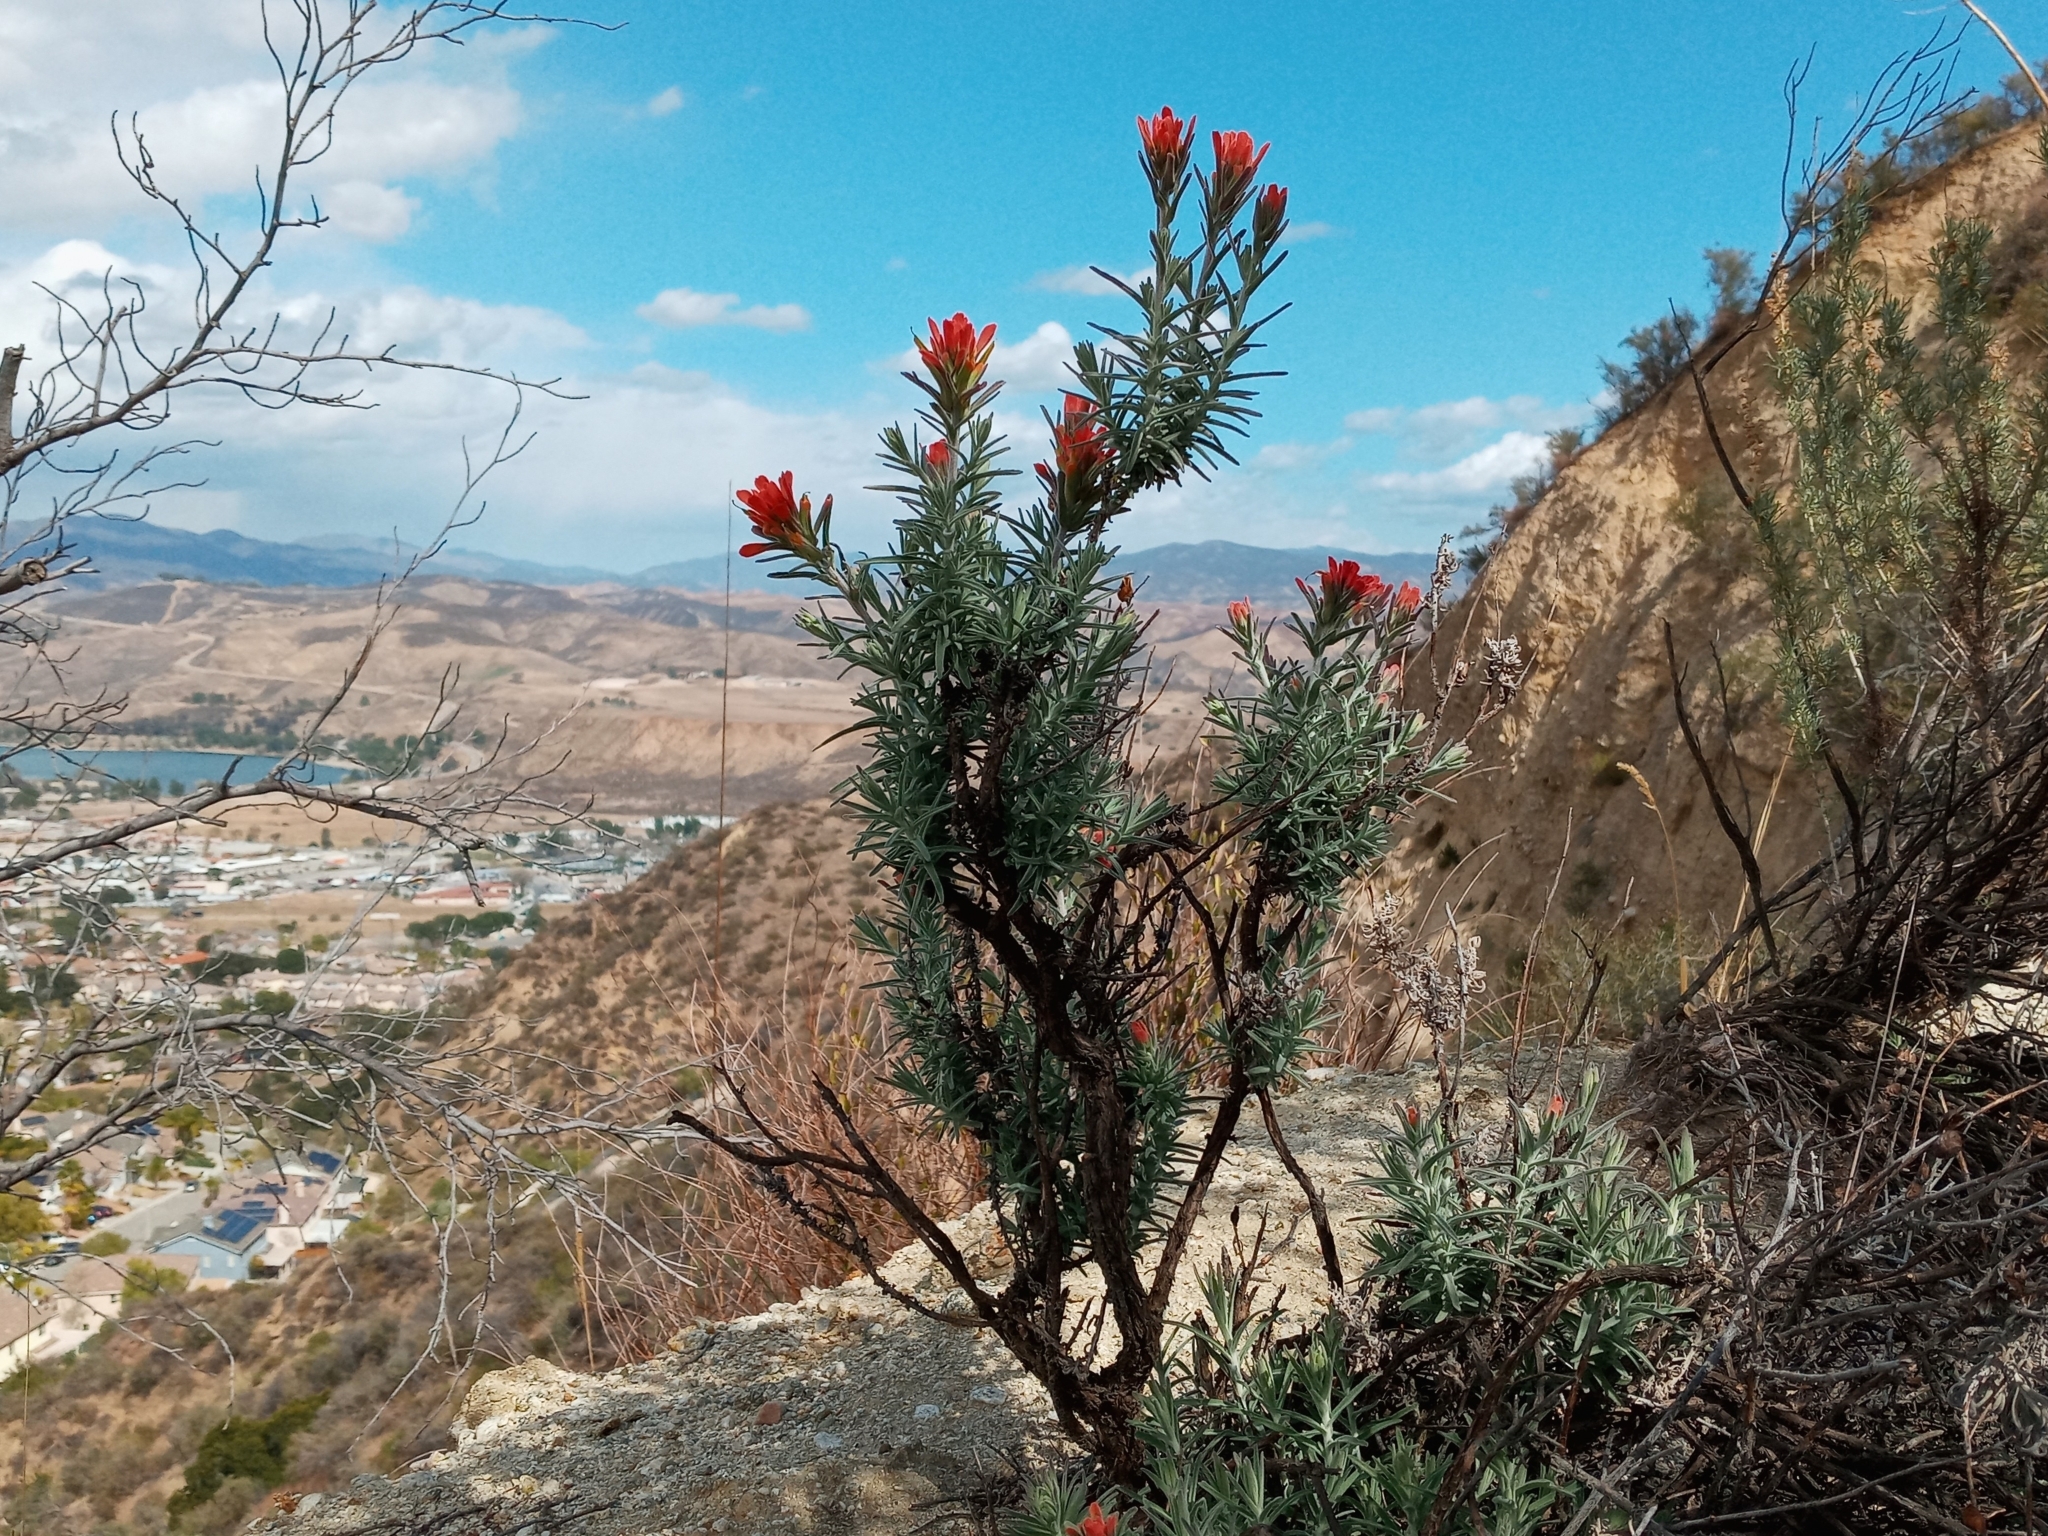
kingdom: Plantae
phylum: Tracheophyta
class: Magnoliopsida
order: Lamiales
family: Orobanchaceae
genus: Castilleja
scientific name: Castilleja foliolosa
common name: Woolly indian paintbrush
